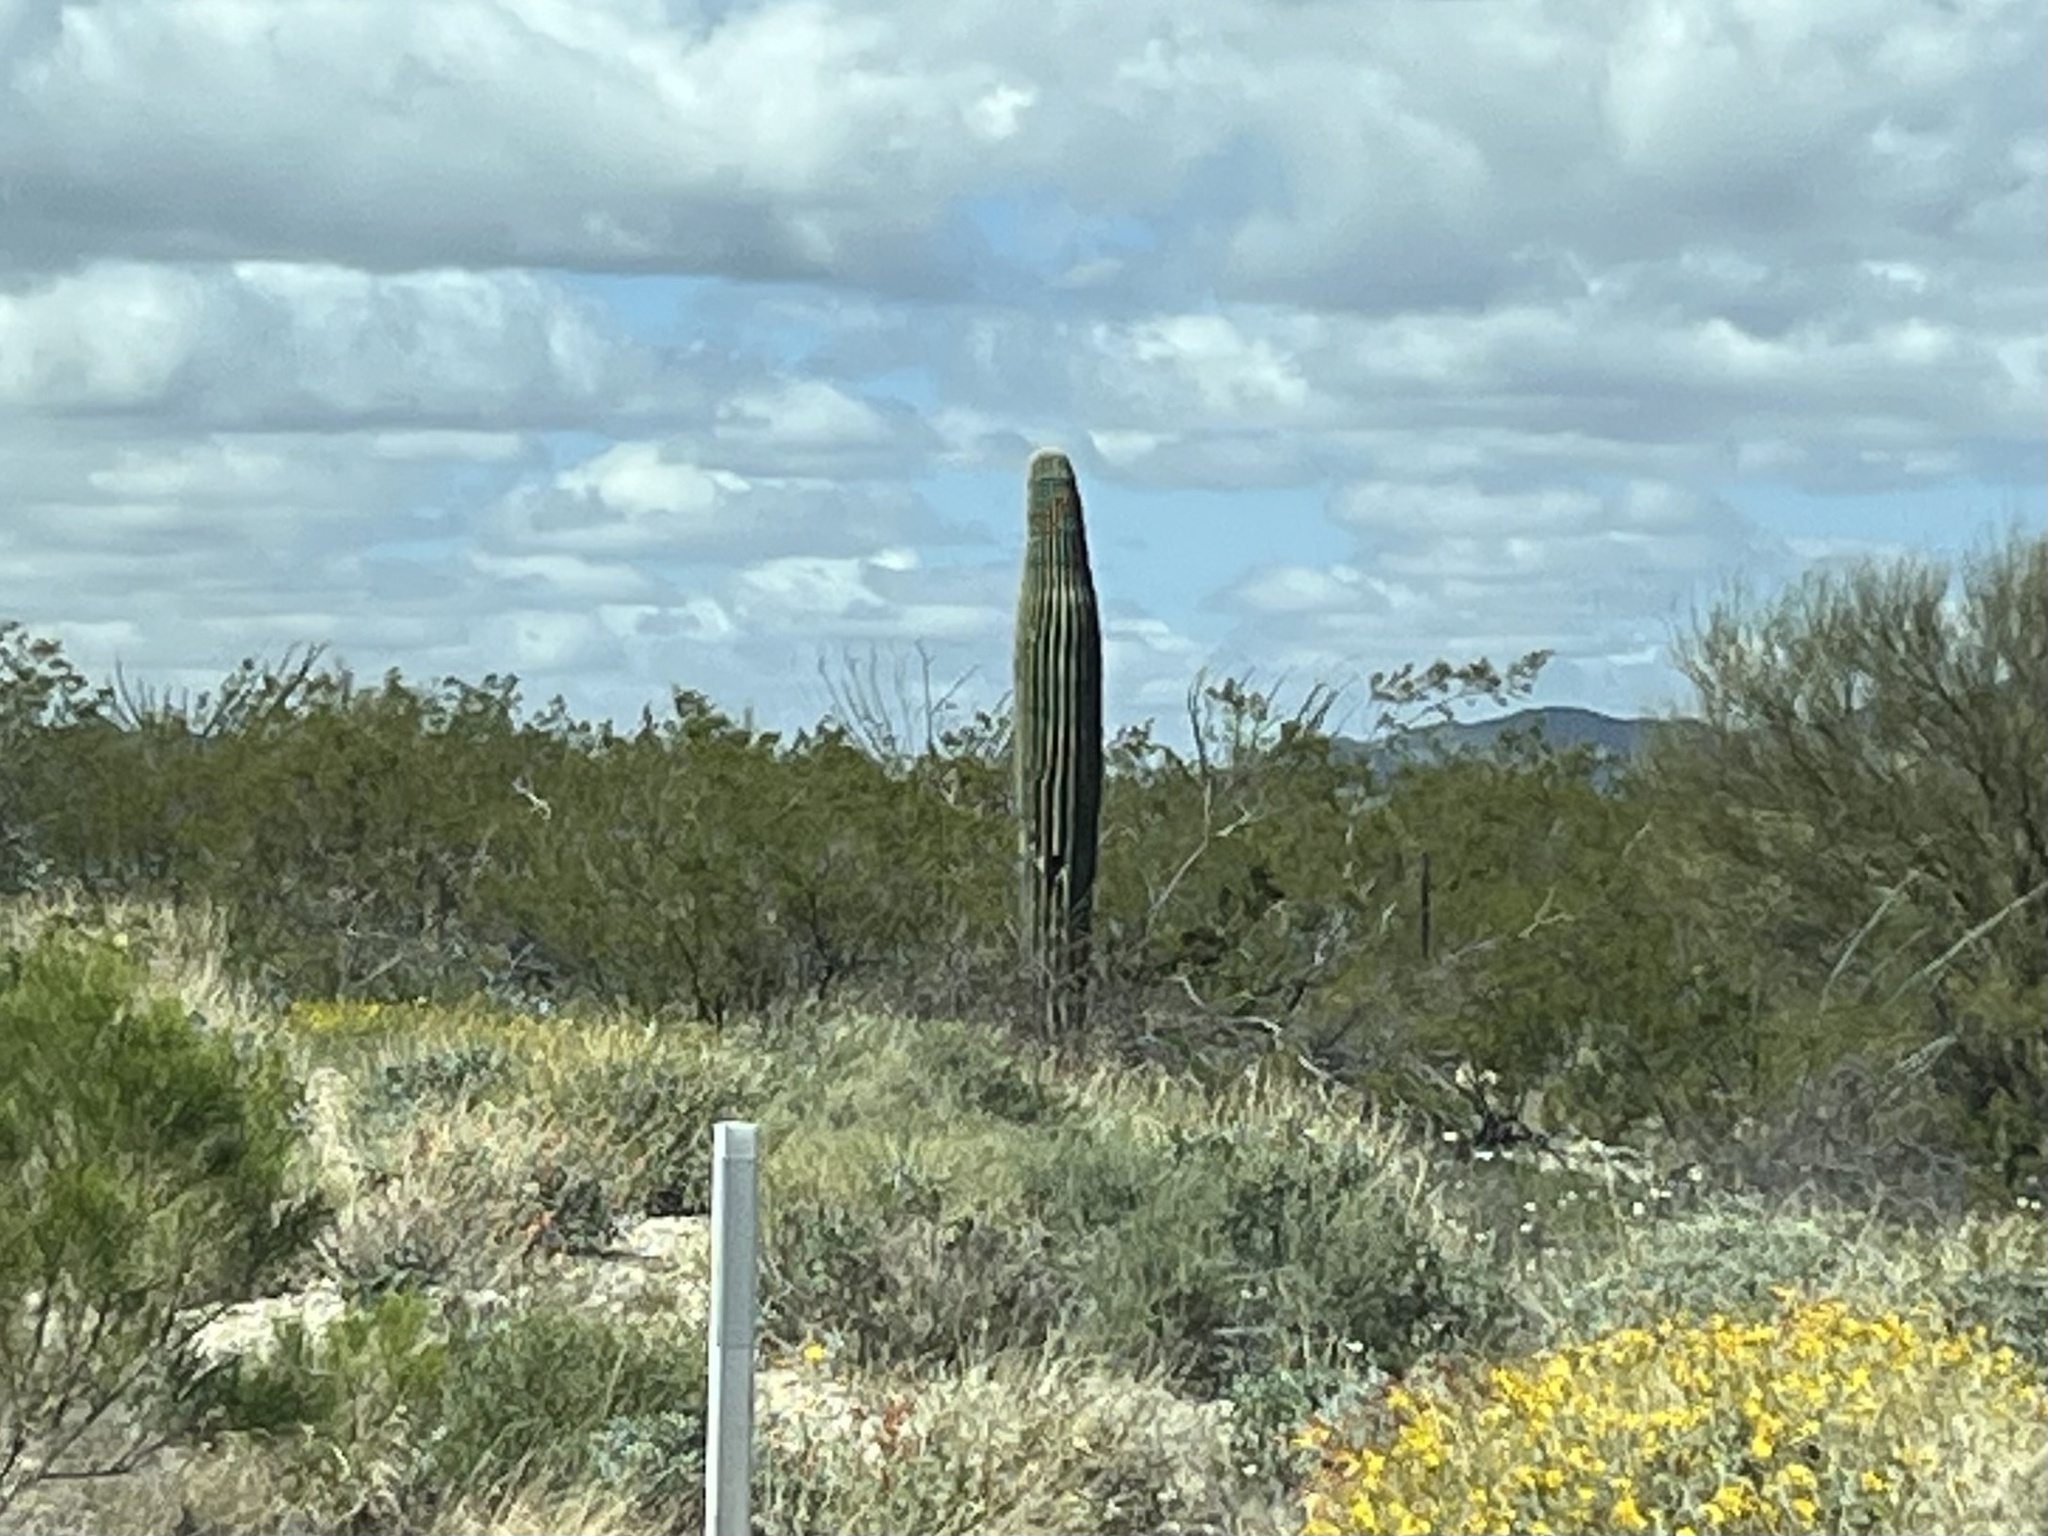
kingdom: Plantae
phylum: Tracheophyta
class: Magnoliopsida
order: Caryophyllales
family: Cactaceae
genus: Carnegiea
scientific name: Carnegiea gigantea
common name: Saguaro
